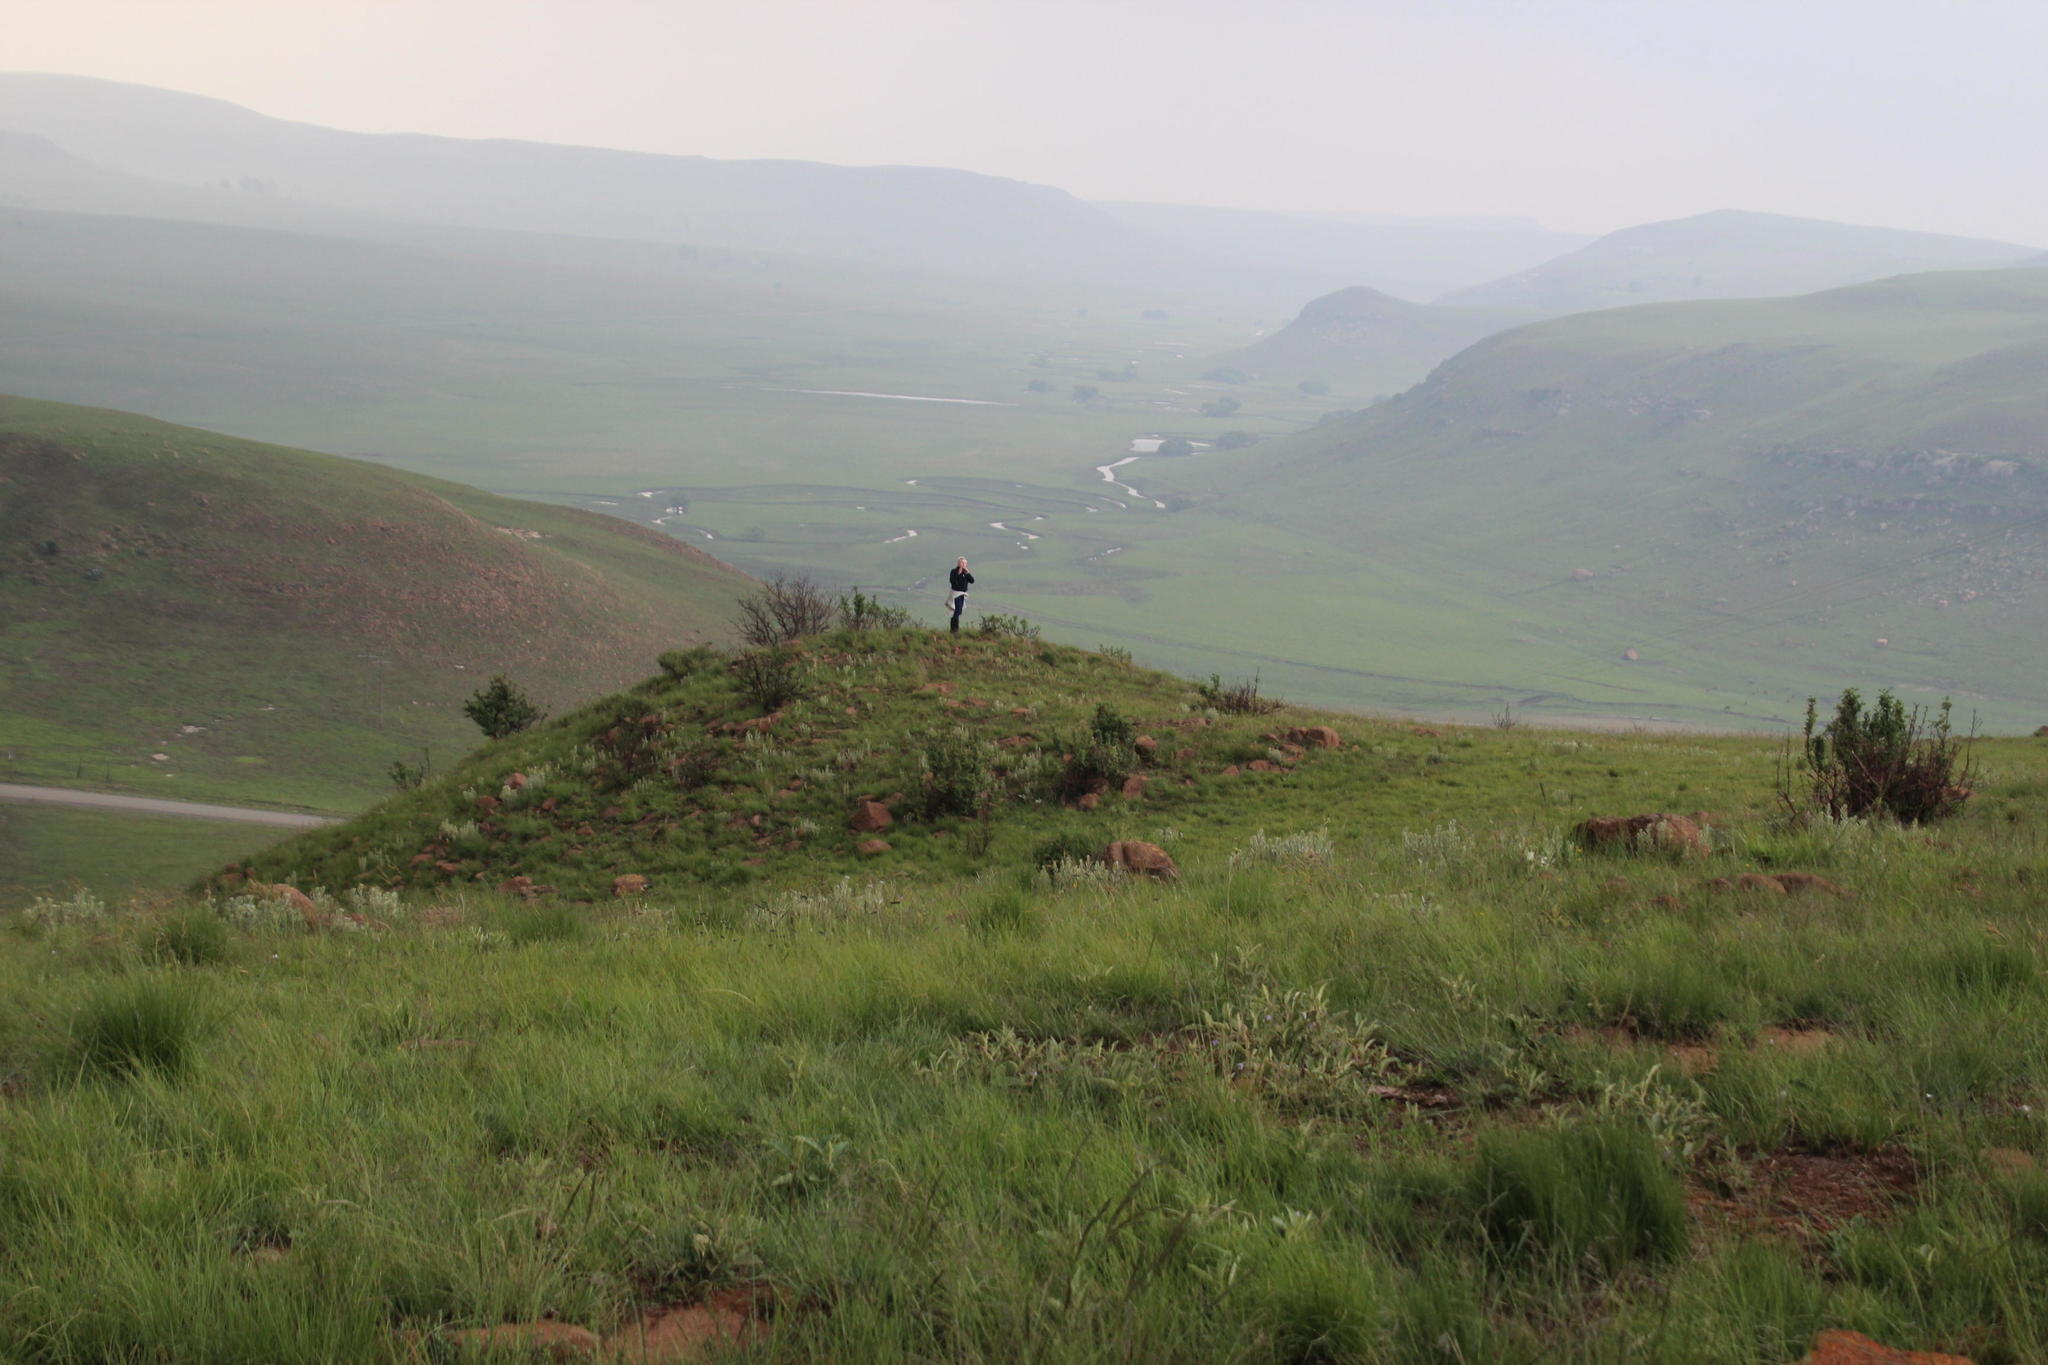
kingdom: Plantae
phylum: Tracheophyta
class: Magnoliopsida
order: Malpighiales
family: Salicaceae
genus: Salix
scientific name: Salix babylonica
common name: Weeping willow
